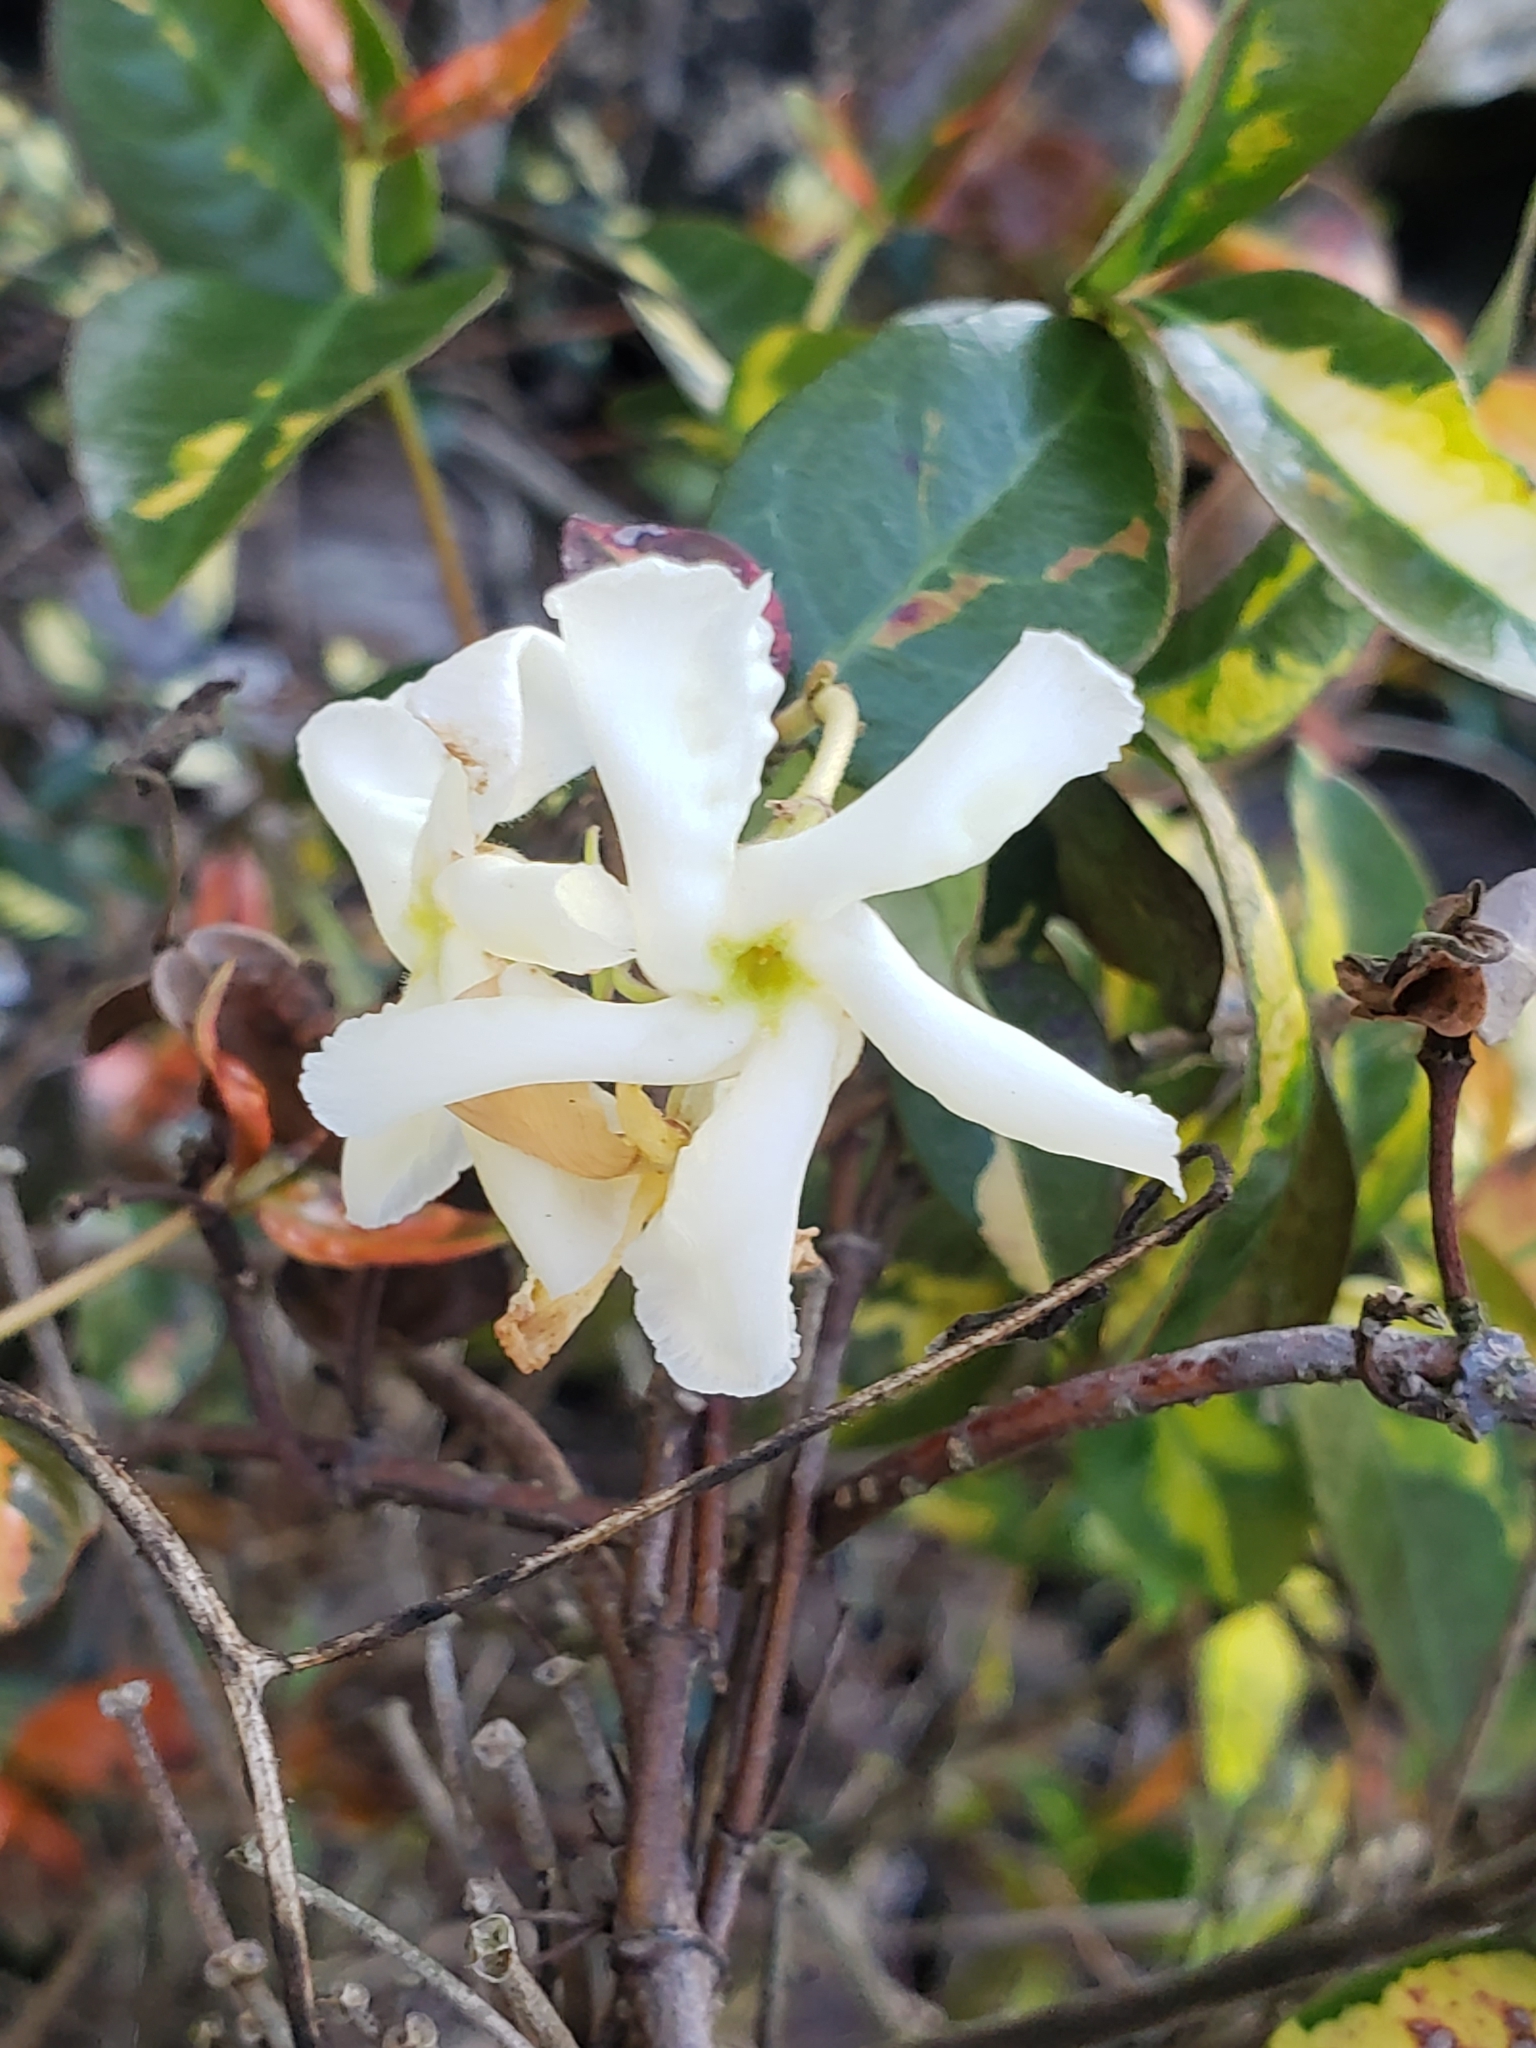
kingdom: Plantae
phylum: Tracheophyta
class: Magnoliopsida
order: Gentianales
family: Apocynaceae
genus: Trachelospermum
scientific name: Trachelospermum jasminoides
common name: Confederate jasmine
